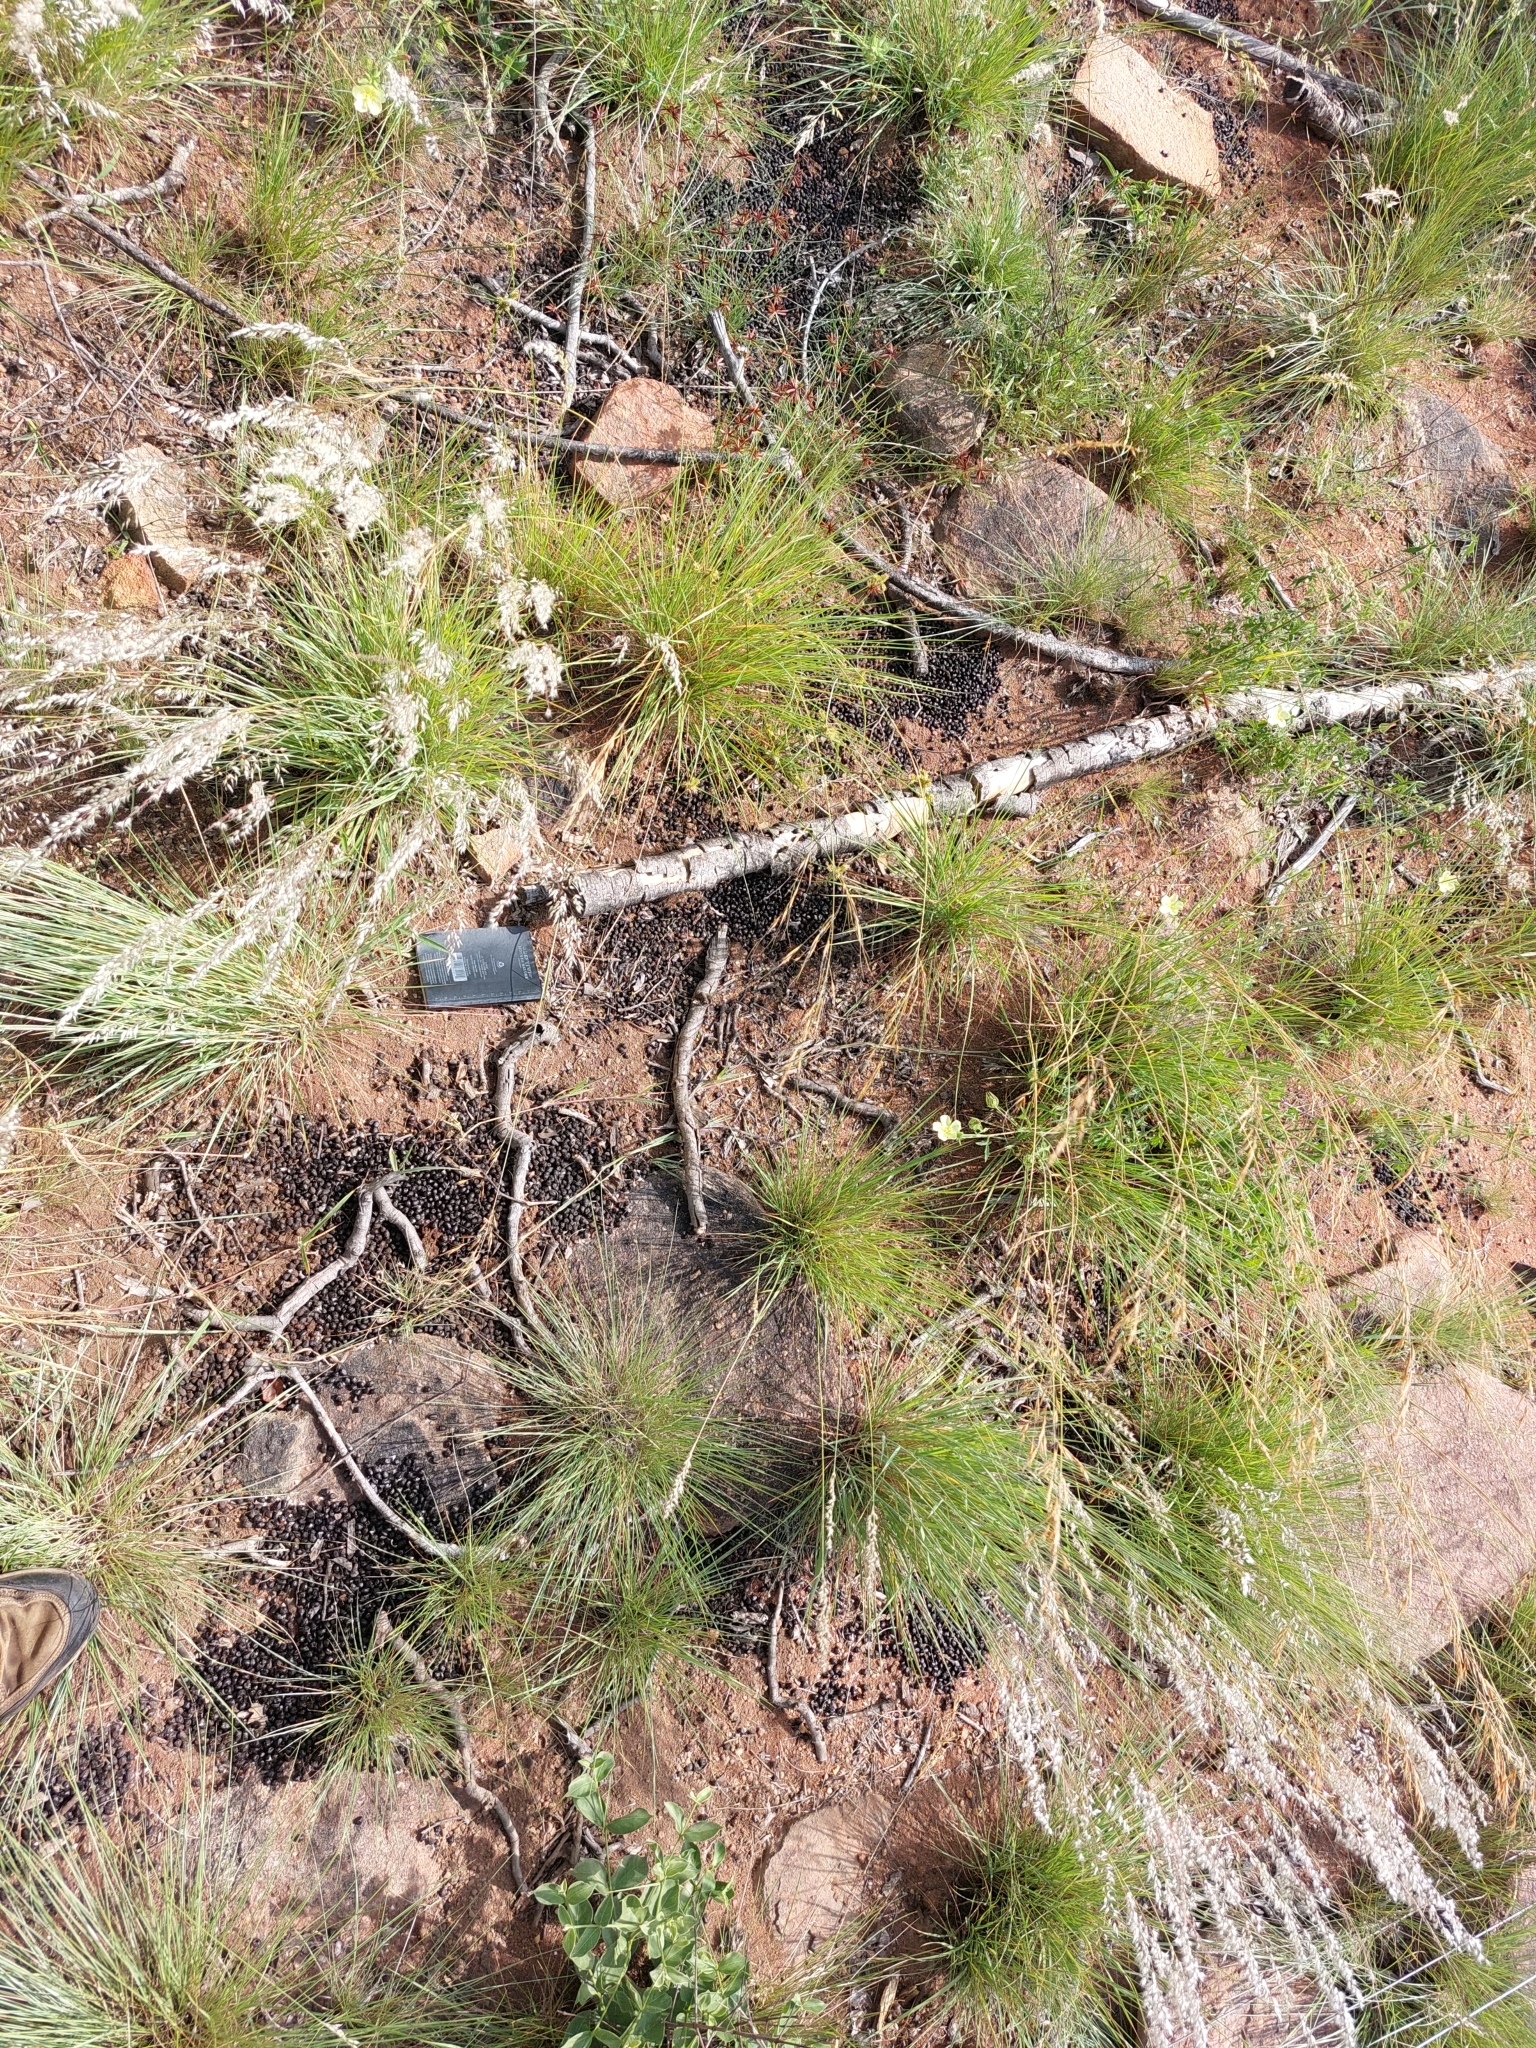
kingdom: Animalia
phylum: Chordata
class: Mammalia
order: Artiodactyla
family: Bovidae
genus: Sylvicapra
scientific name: Sylvicapra grimmia
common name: Bush duiker
